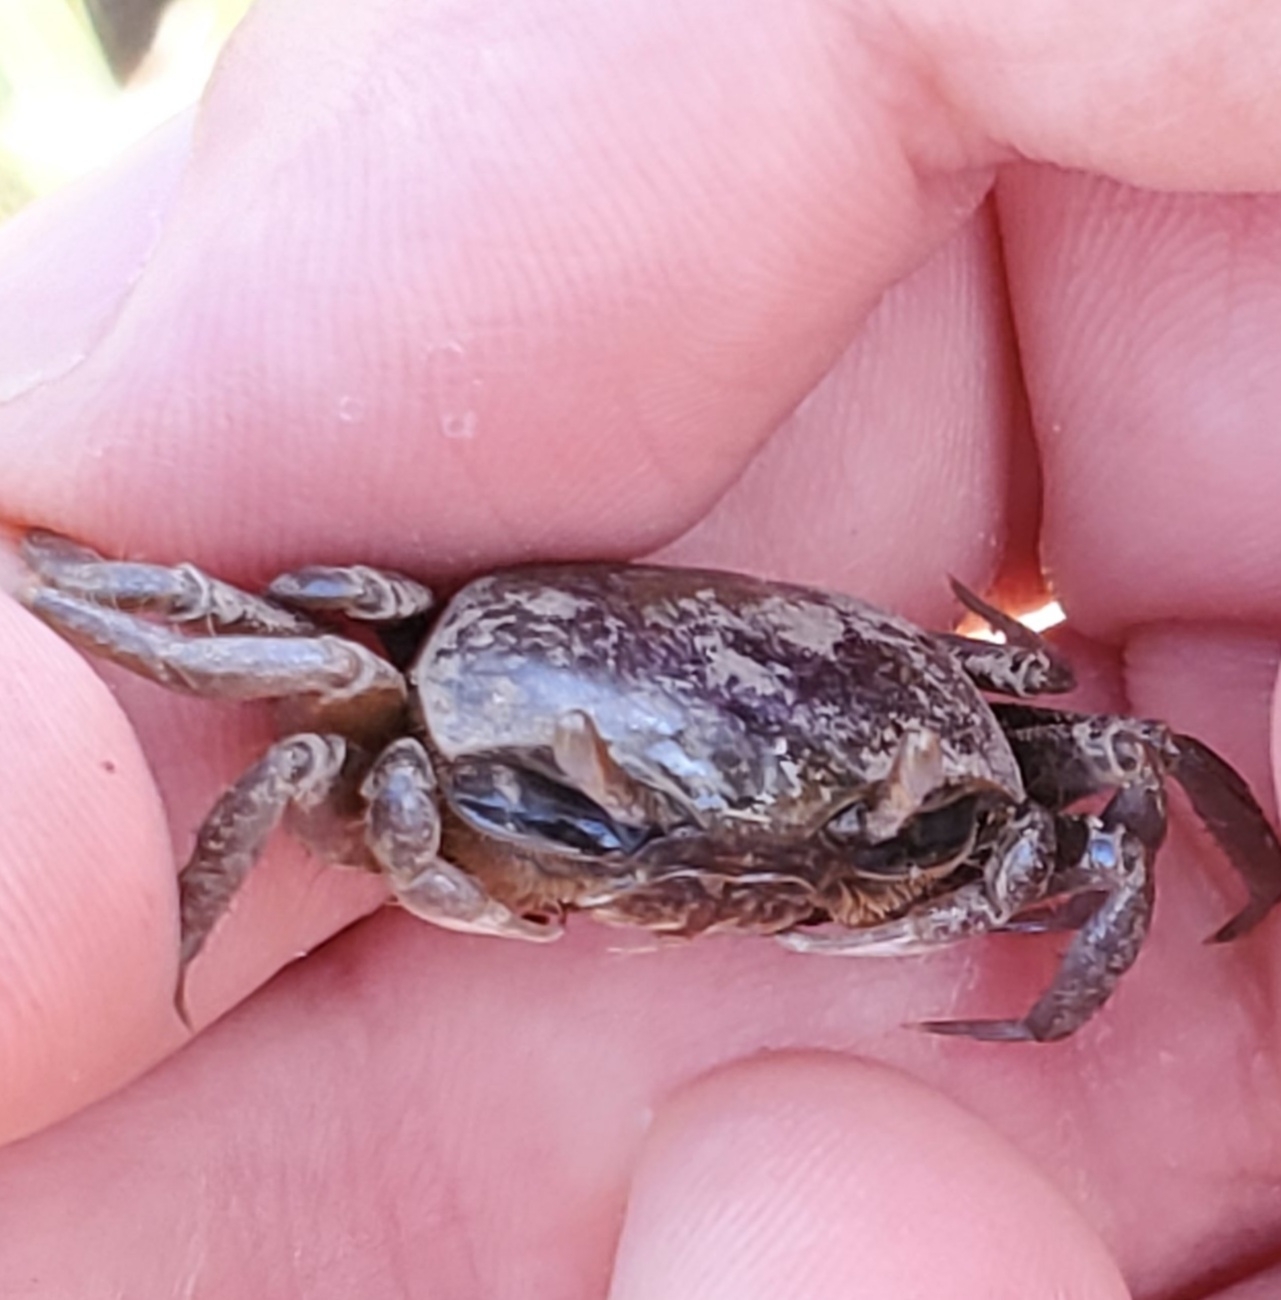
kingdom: Animalia
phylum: Arthropoda
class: Malacostraca
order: Decapoda
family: Ocypodidae
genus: Leptuca
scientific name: Leptuca pugilator
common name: Atlantic sand fiddler crab
